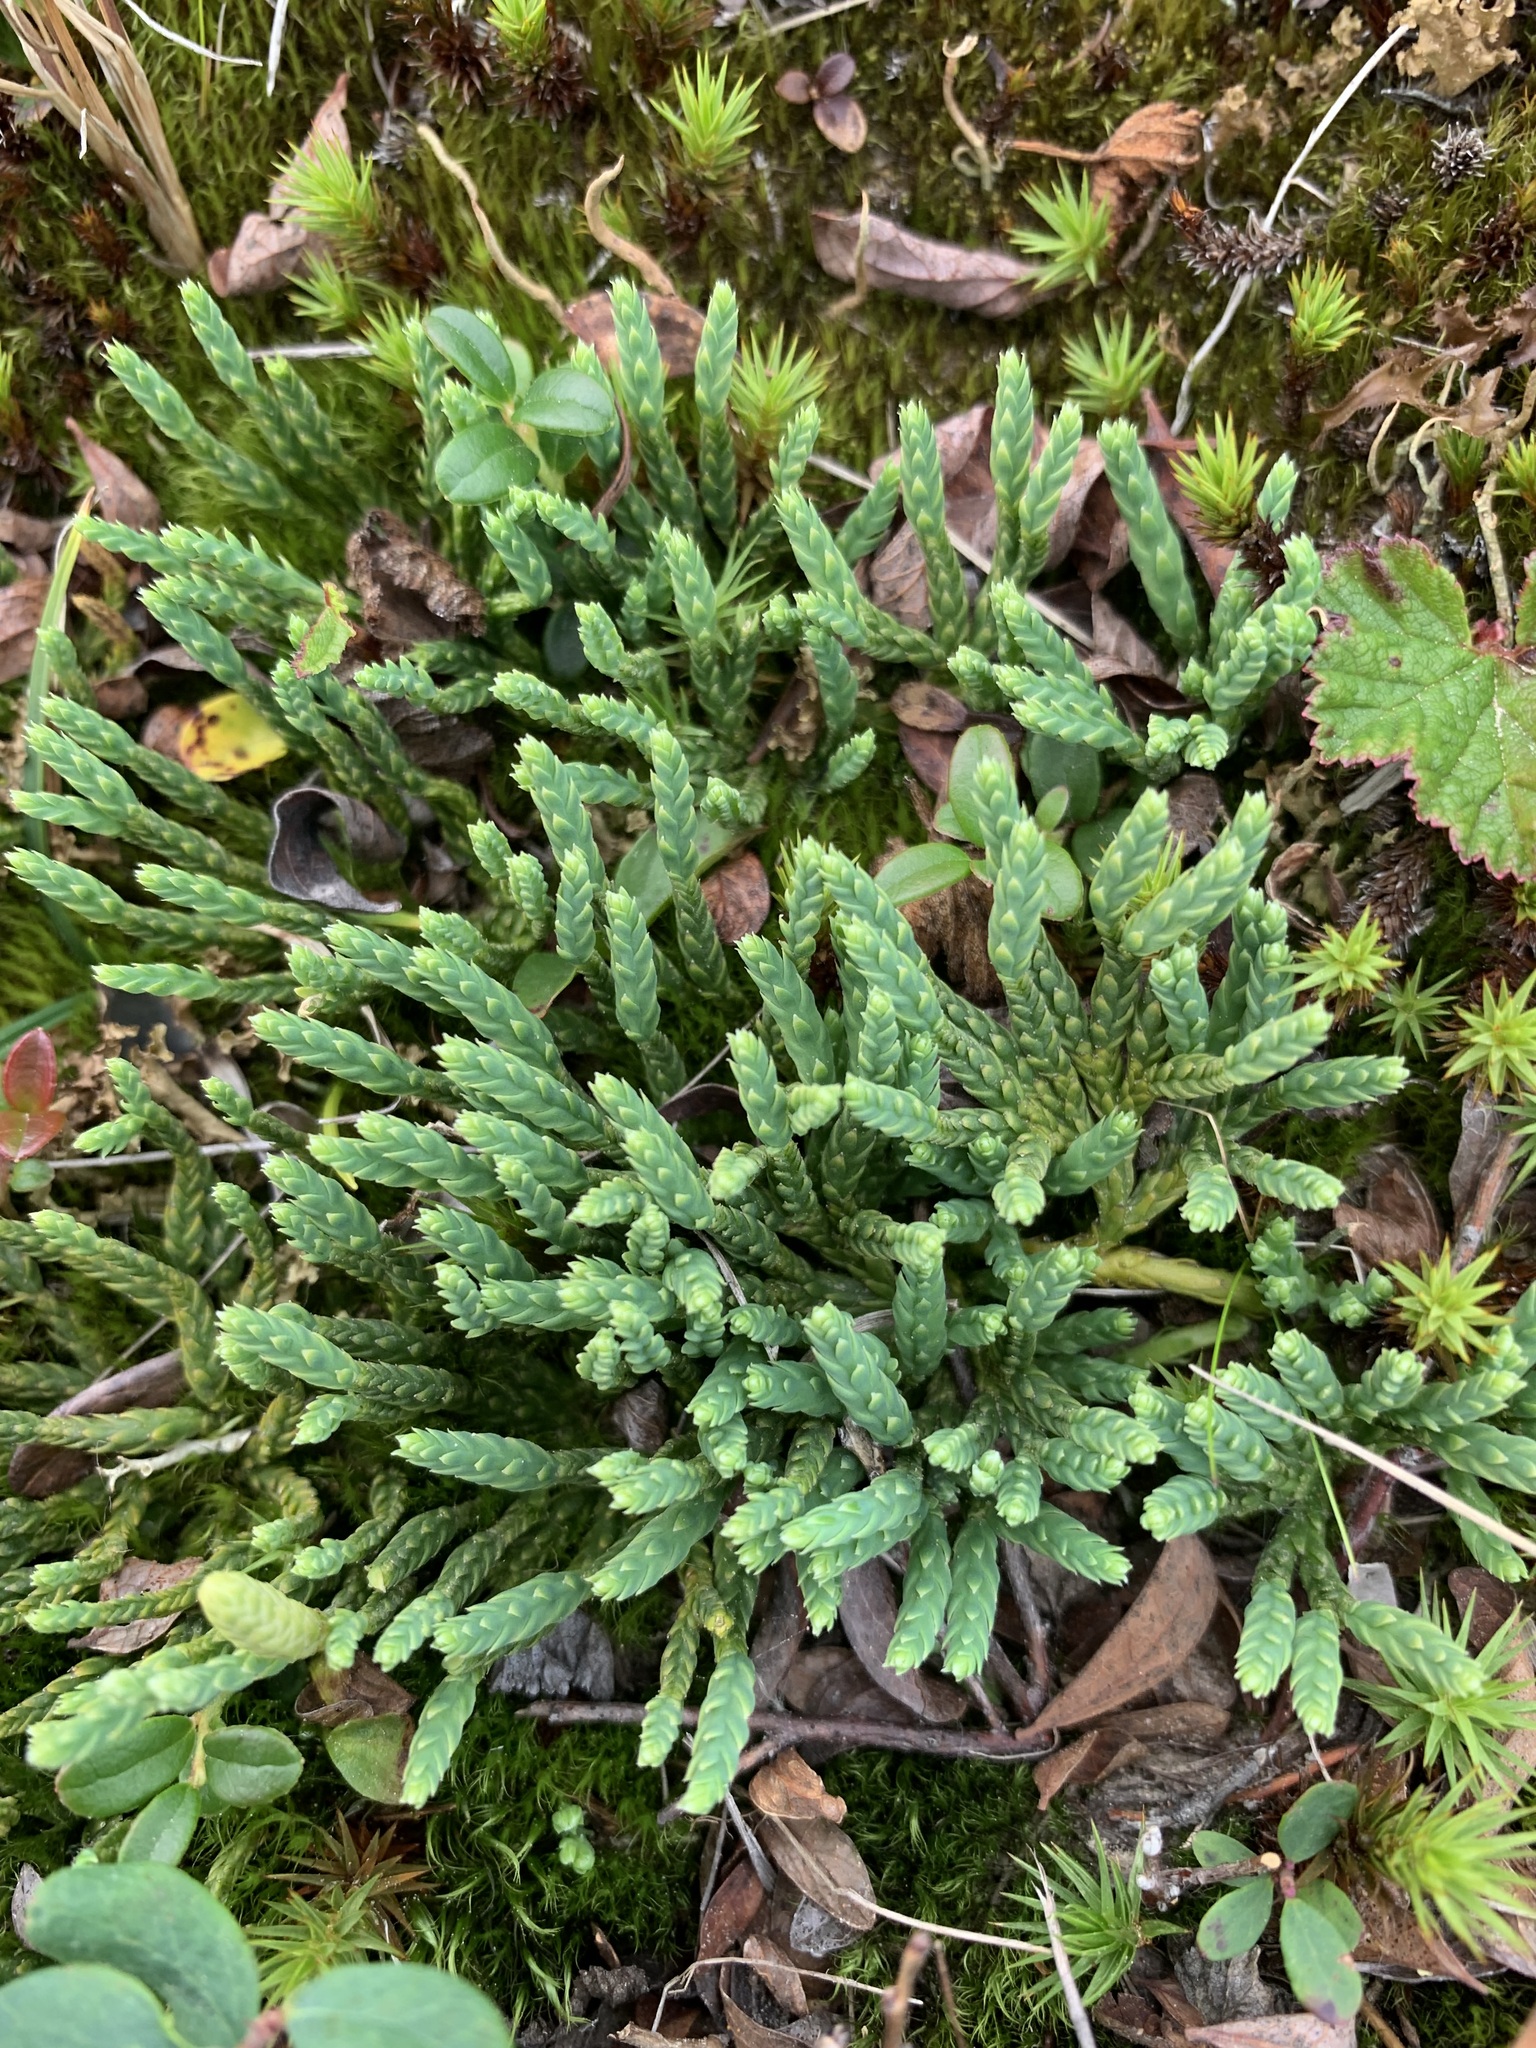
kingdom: Plantae
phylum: Tracheophyta
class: Lycopodiopsida
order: Lycopodiales
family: Lycopodiaceae
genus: Diphasiastrum
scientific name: Diphasiastrum alpinum
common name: Alpine clubmoss
